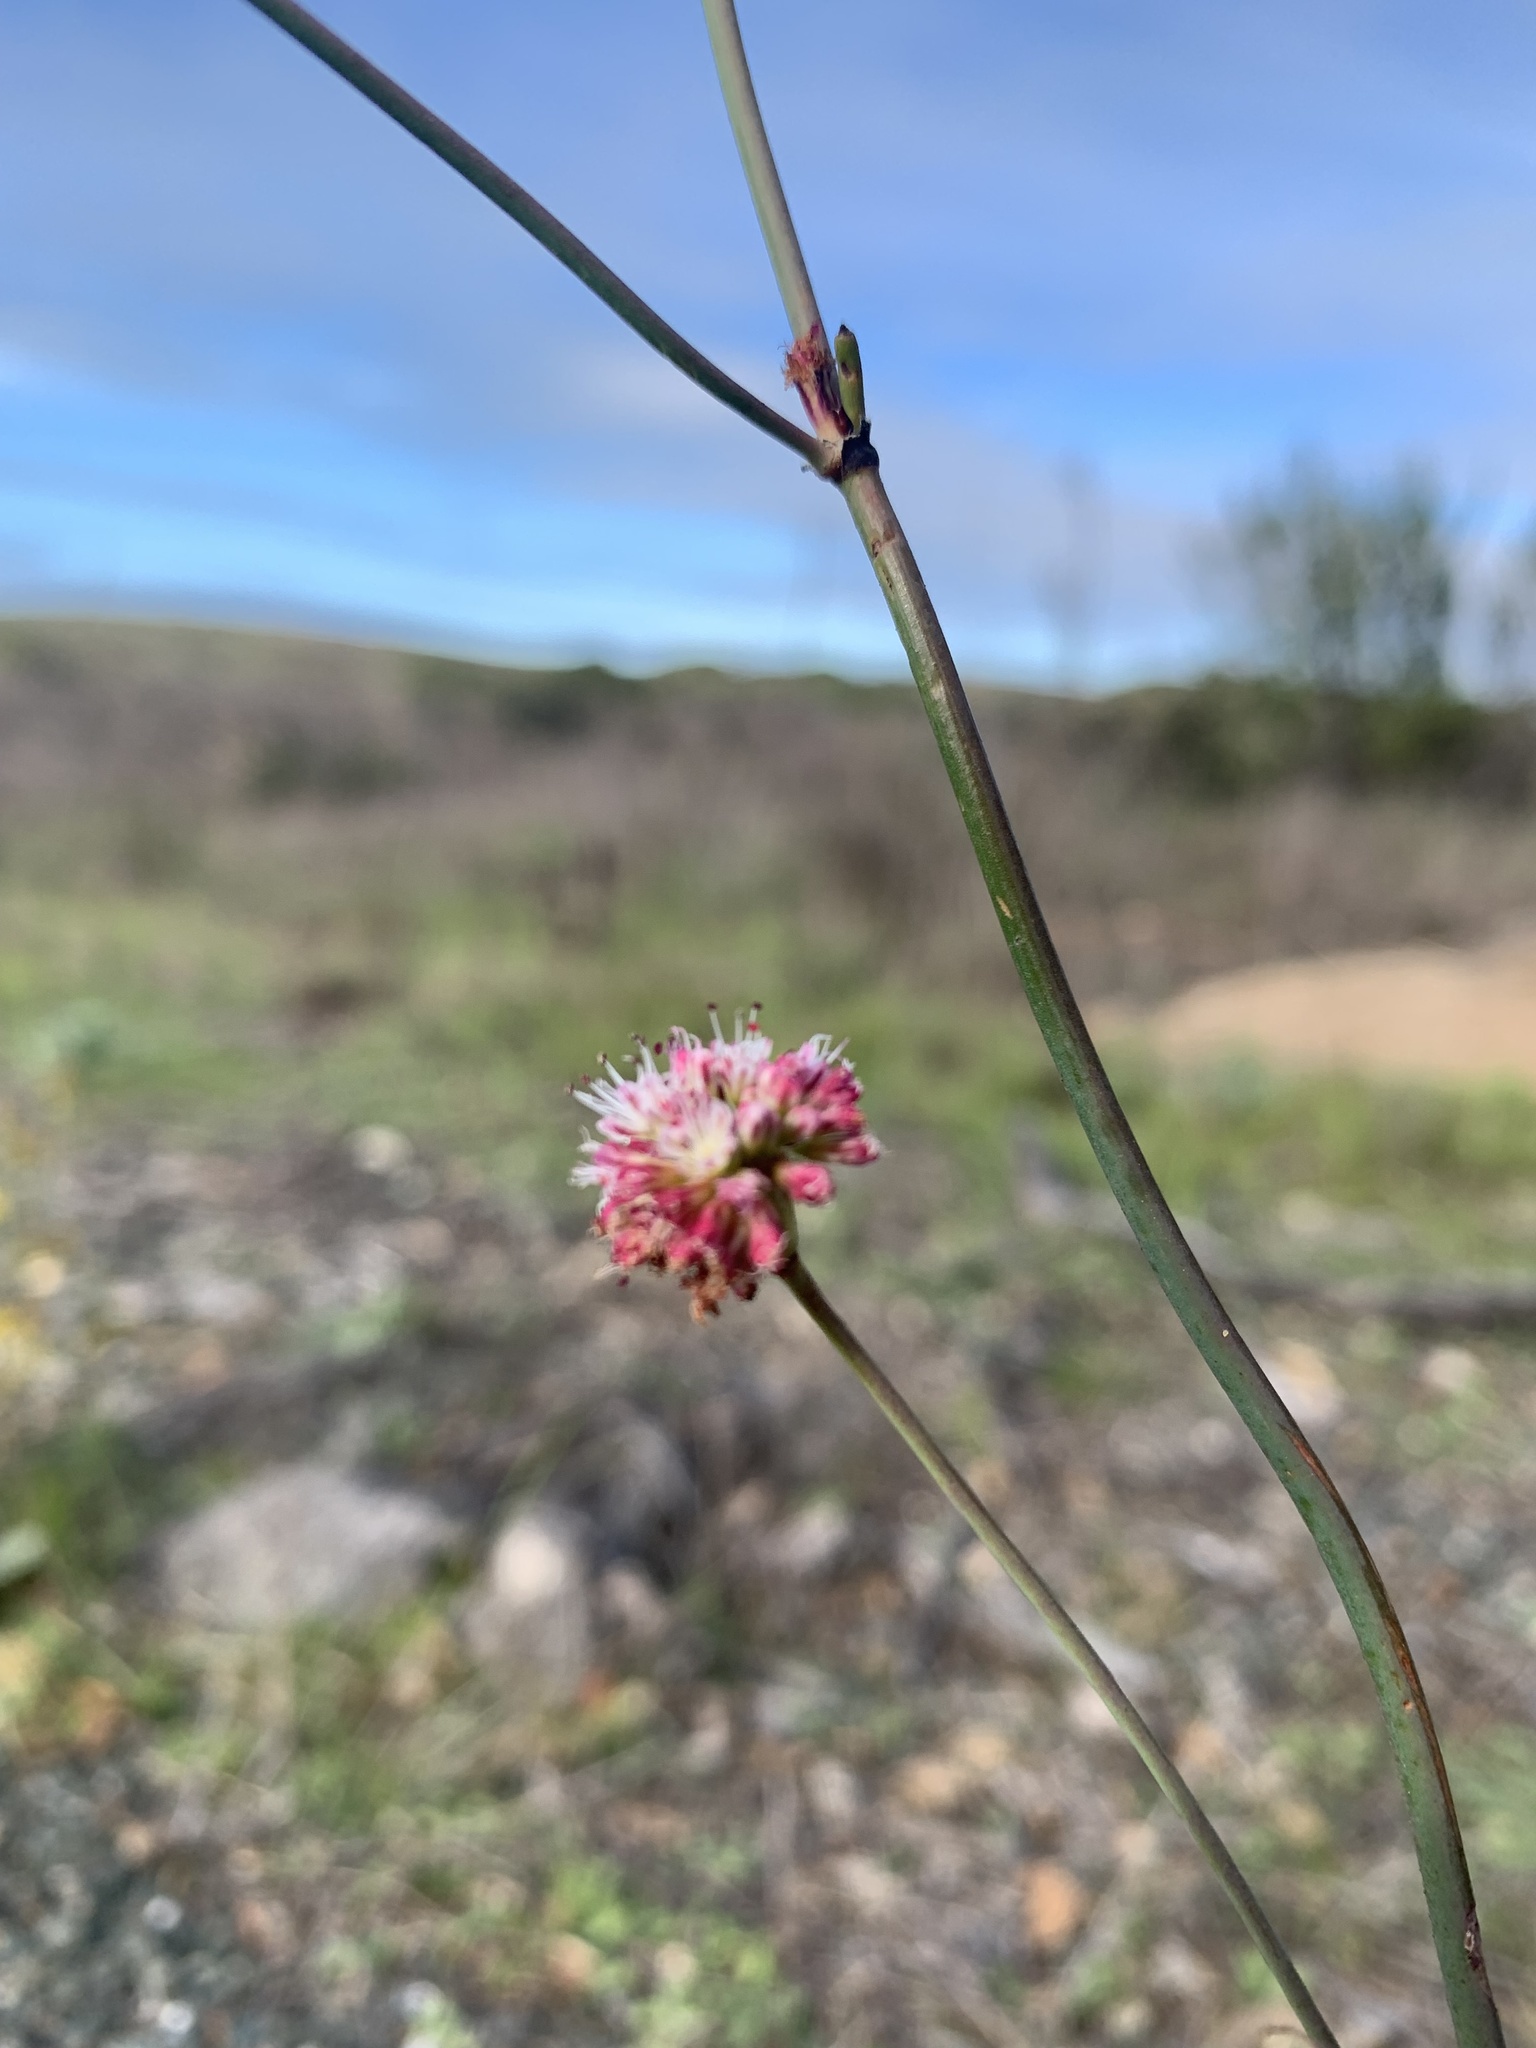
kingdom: Plantae
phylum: Tracheophyta
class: Magnoliopsida
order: Caryophyllales
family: Polygonaceae
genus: Eriogonum
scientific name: Eriogonum nudum
